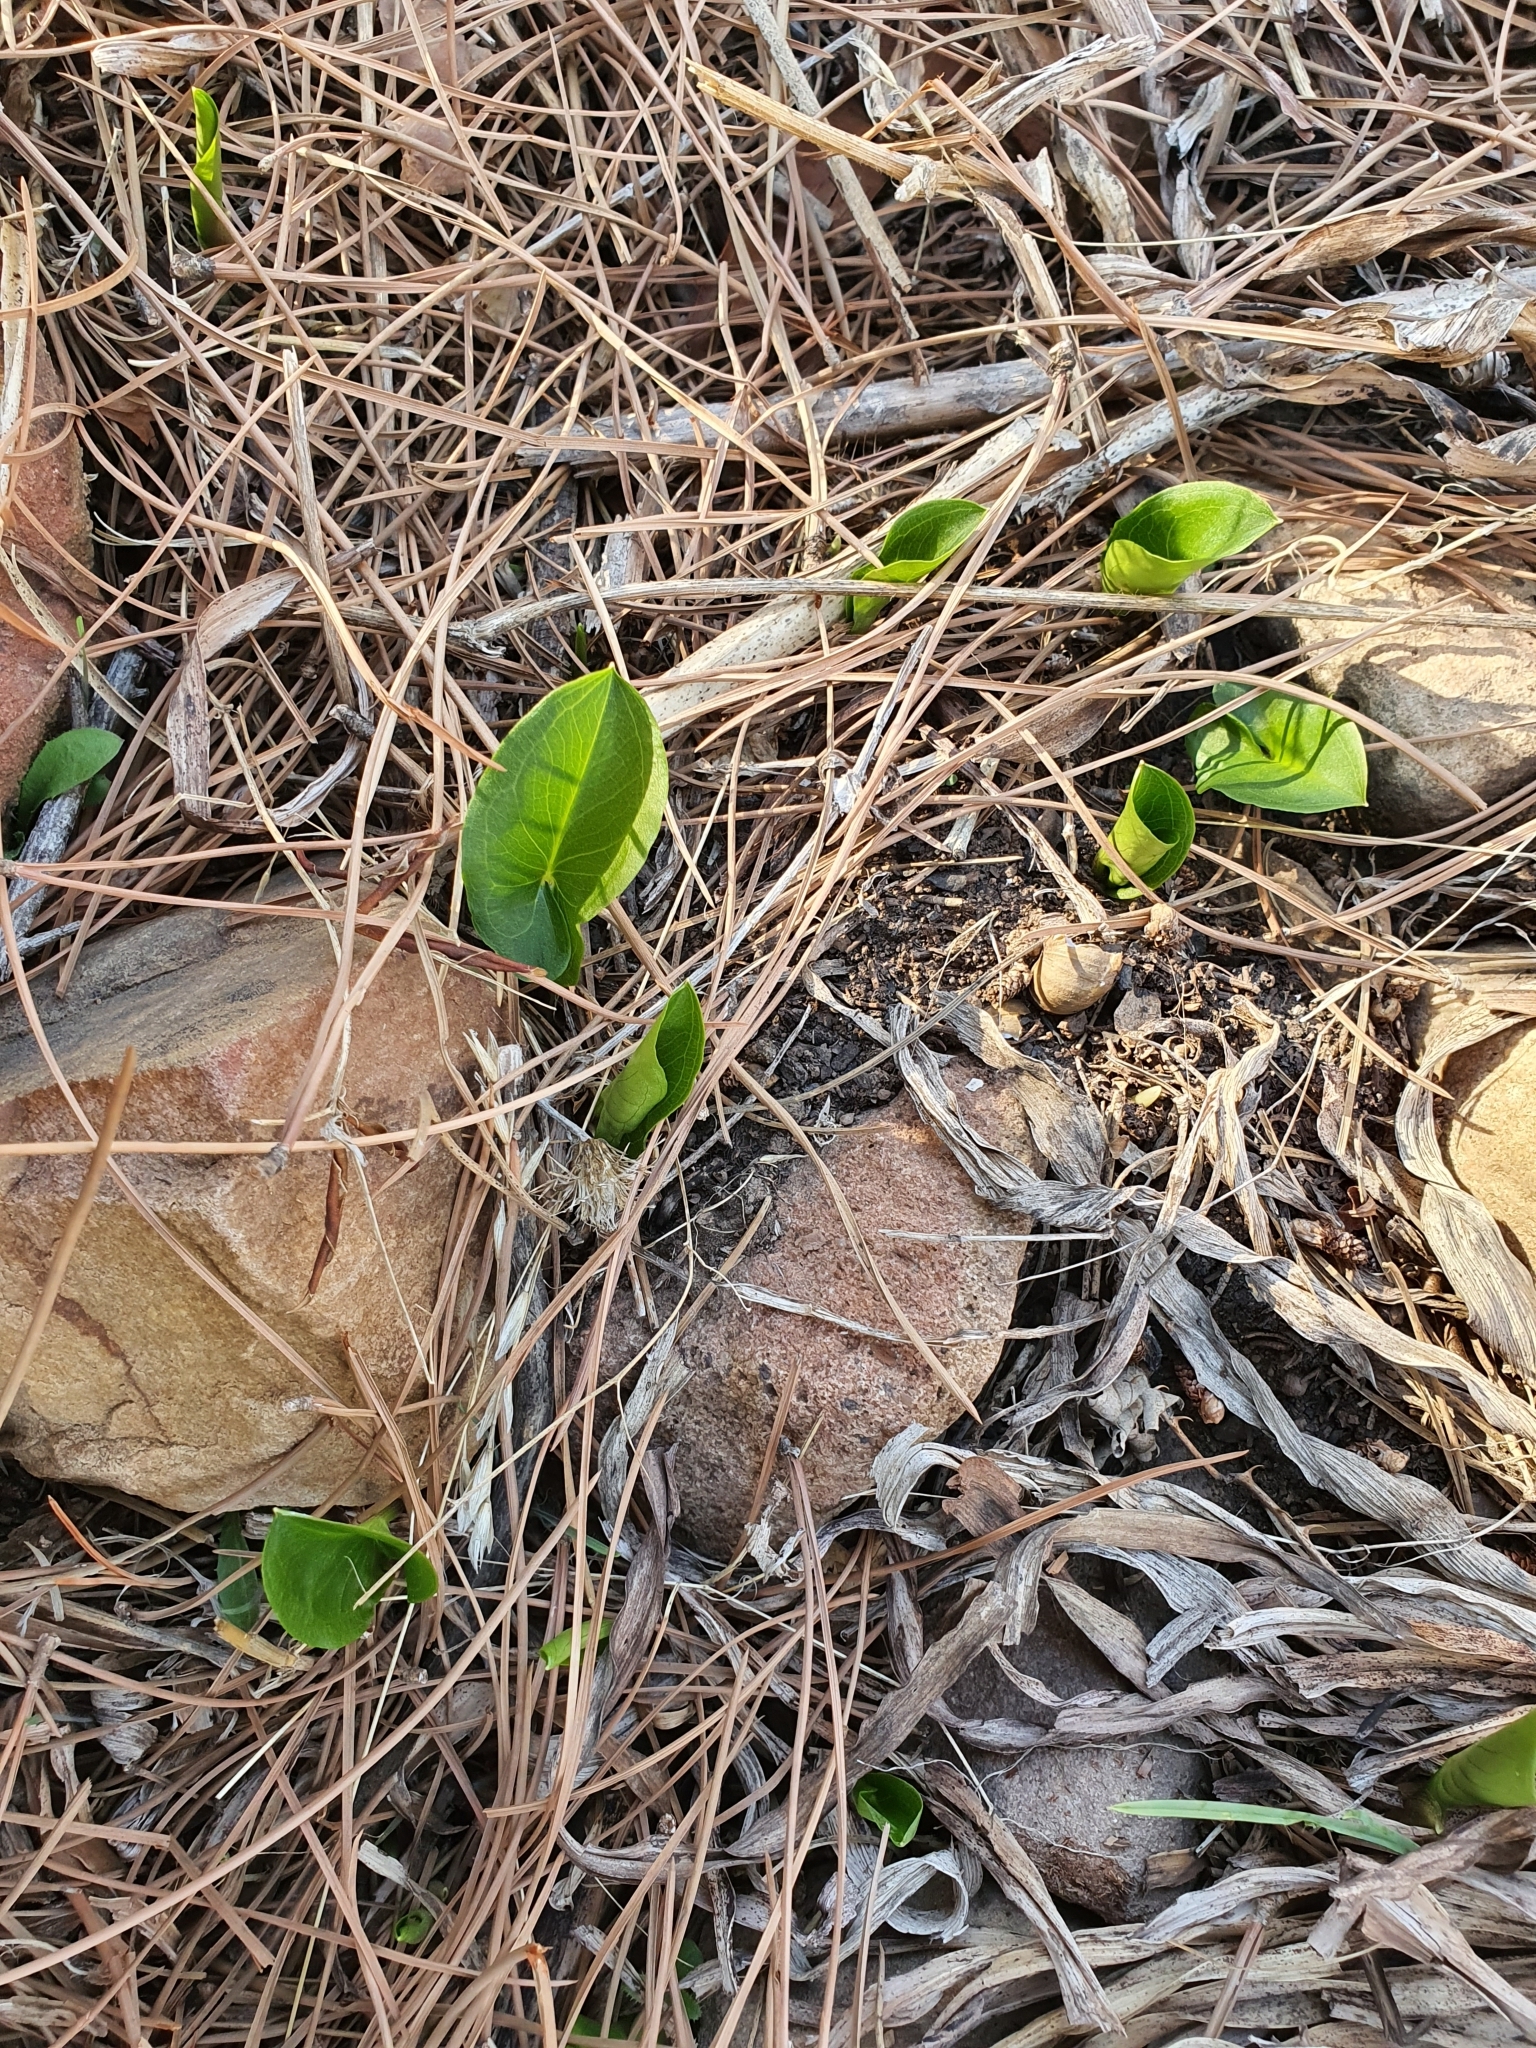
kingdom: Plantae
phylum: Tracheophyta
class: Liliopsida
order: Alismatales
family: Araceae
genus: Arisarum
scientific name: Arisarum vulgare
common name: Common arisarum
